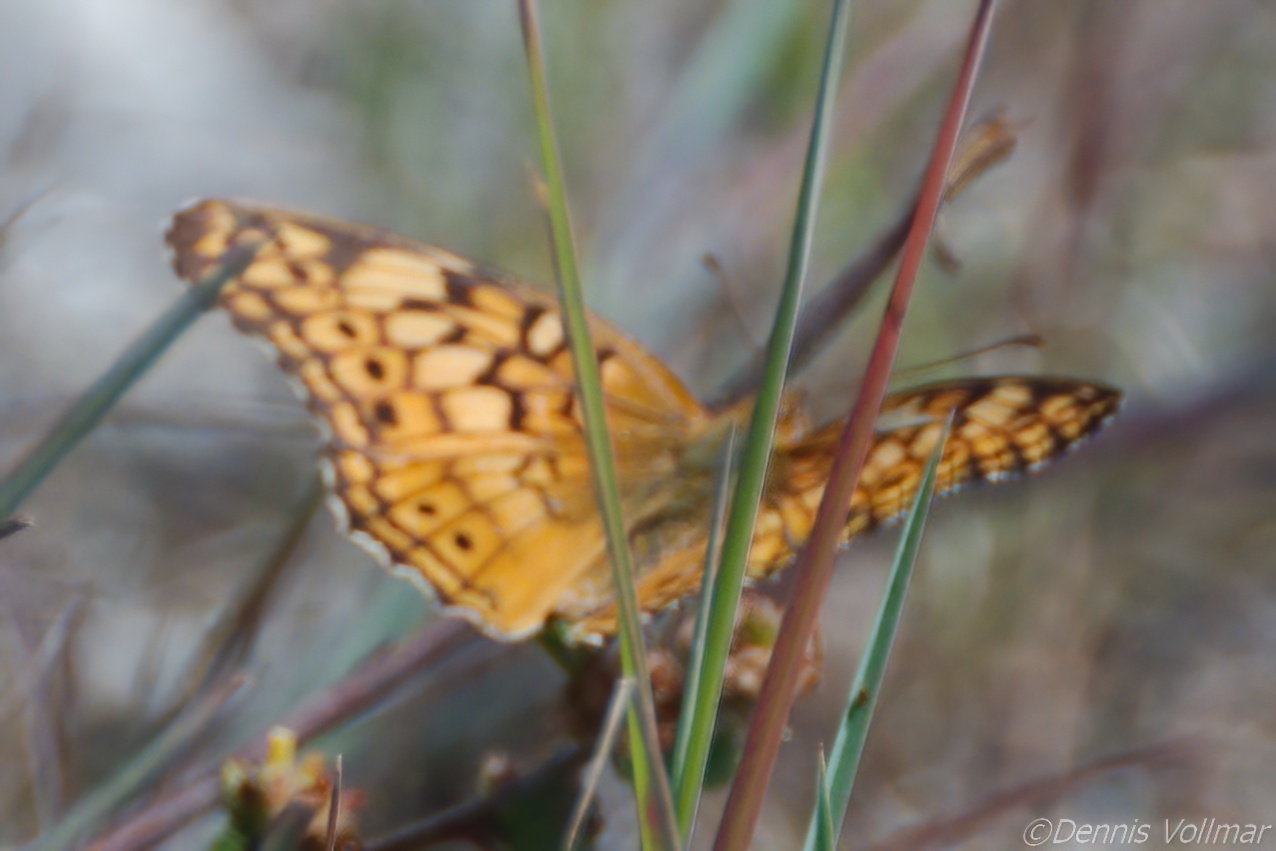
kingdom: Animalia
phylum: Arthropoda
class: Insecta
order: Lepidoptera
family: Nymphalidae
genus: Euptoieta
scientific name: Euptoieta claudia
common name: Variegated fritillary
